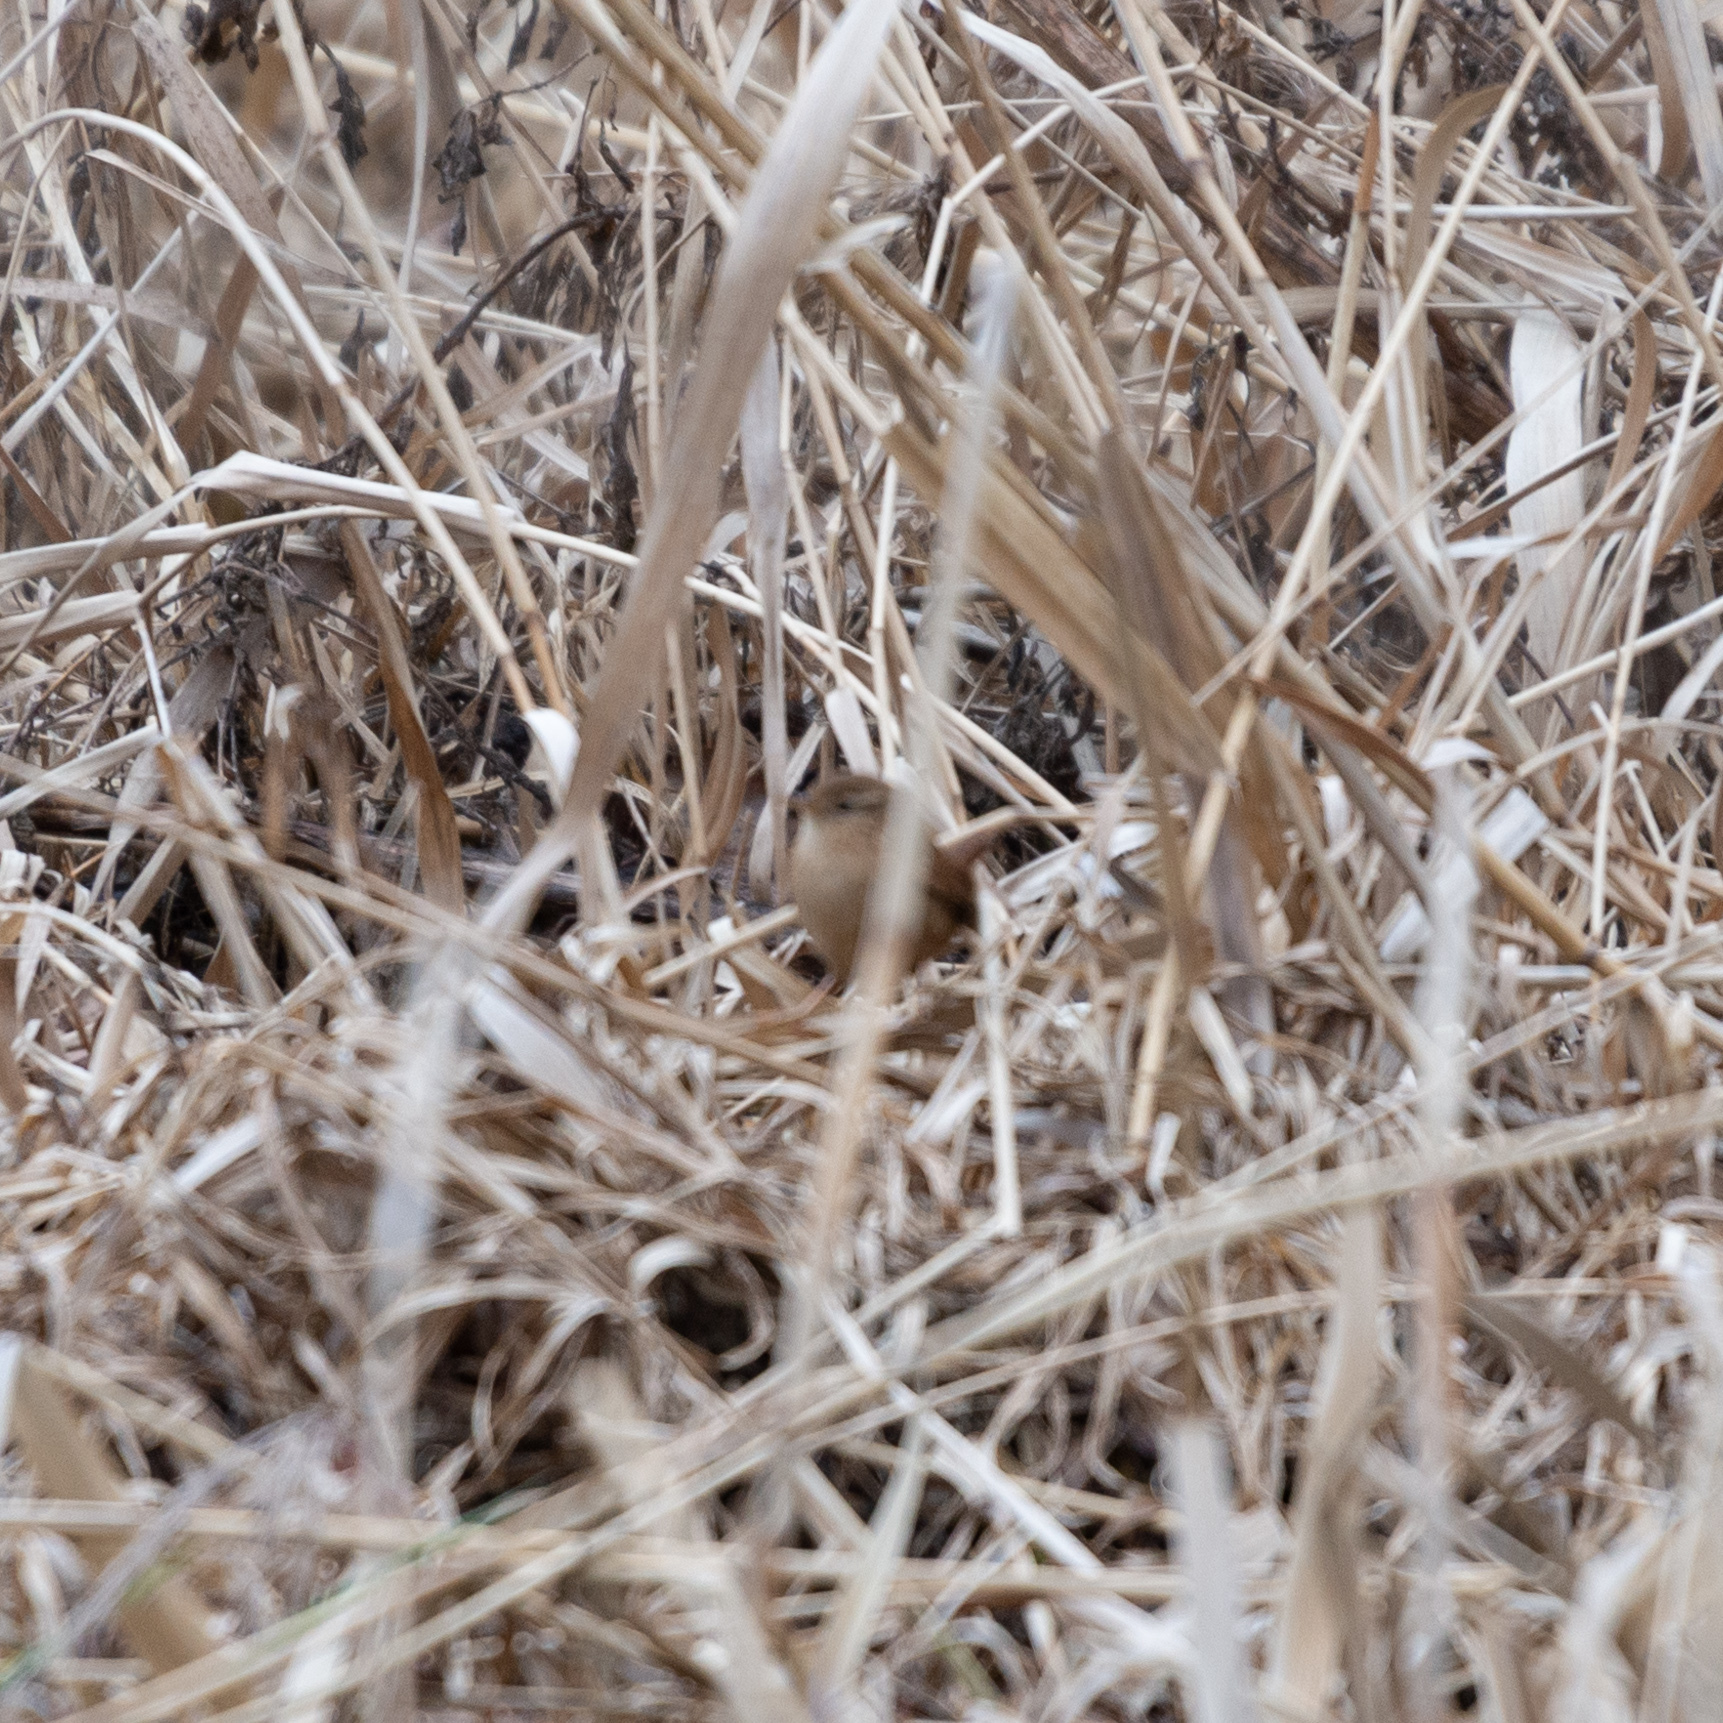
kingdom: Animalia
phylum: Chordata
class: Aves
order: Passeriformes
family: Troglodytidae
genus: Troglodytes
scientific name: Troglodytes troglodytes
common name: Eurasian wren
